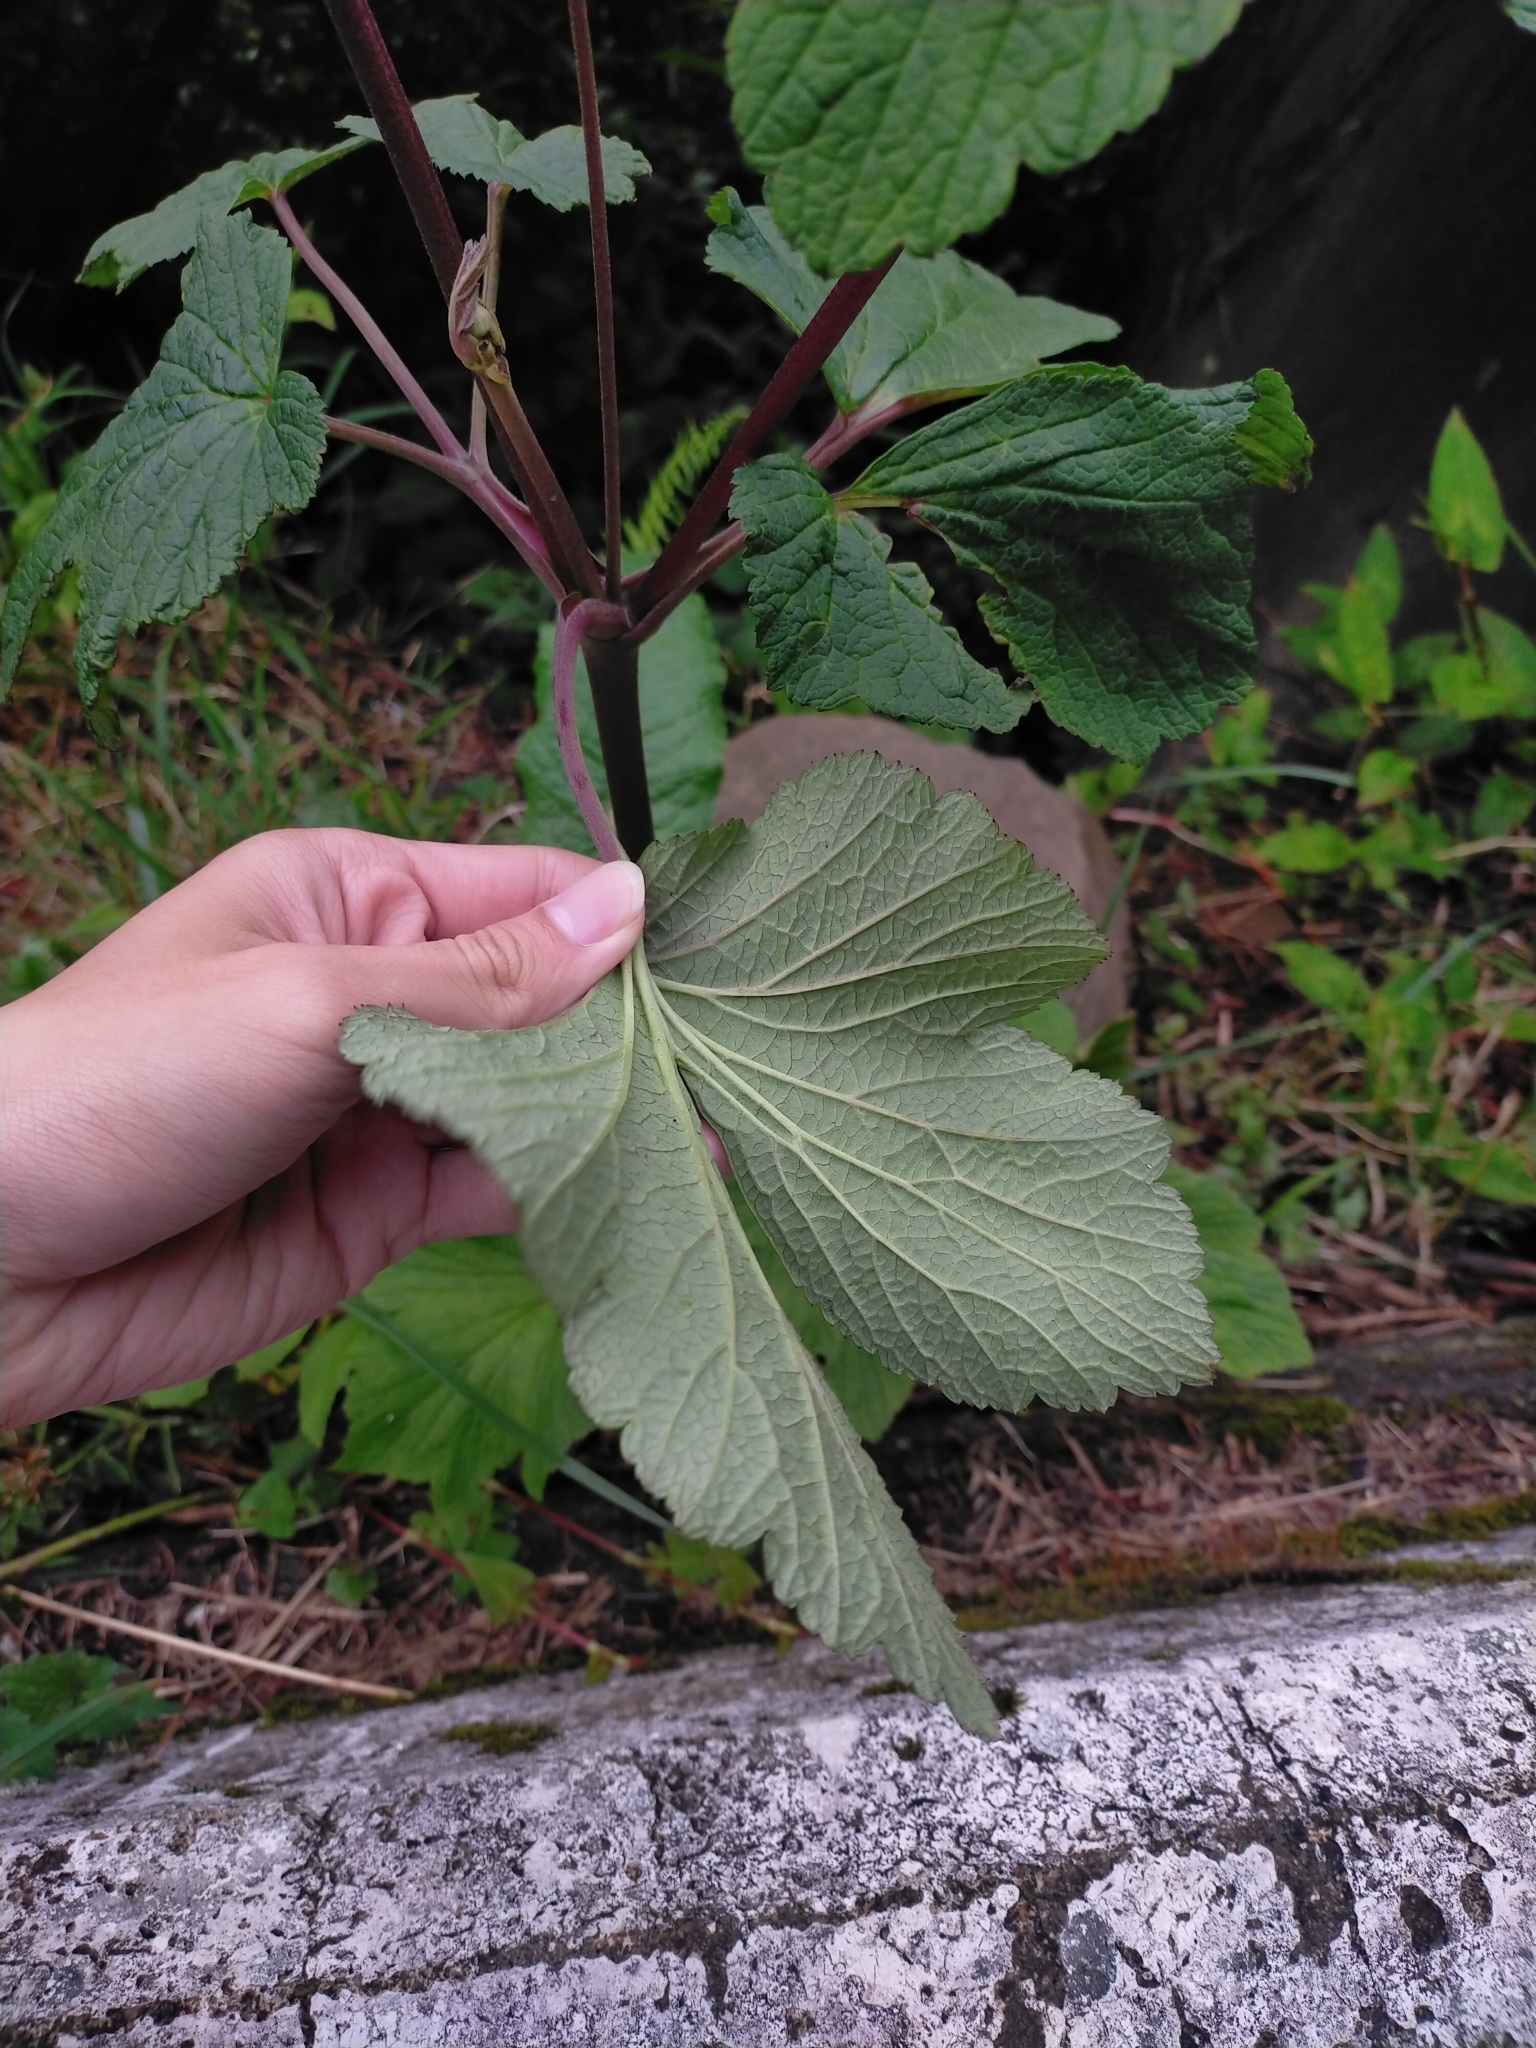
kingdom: Plantae
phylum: Tracheophyta
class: Magnoliopsida
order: Ranunculales
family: Ranunculaceae
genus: Eriocapitella
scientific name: Eriocapitella vitifolia
